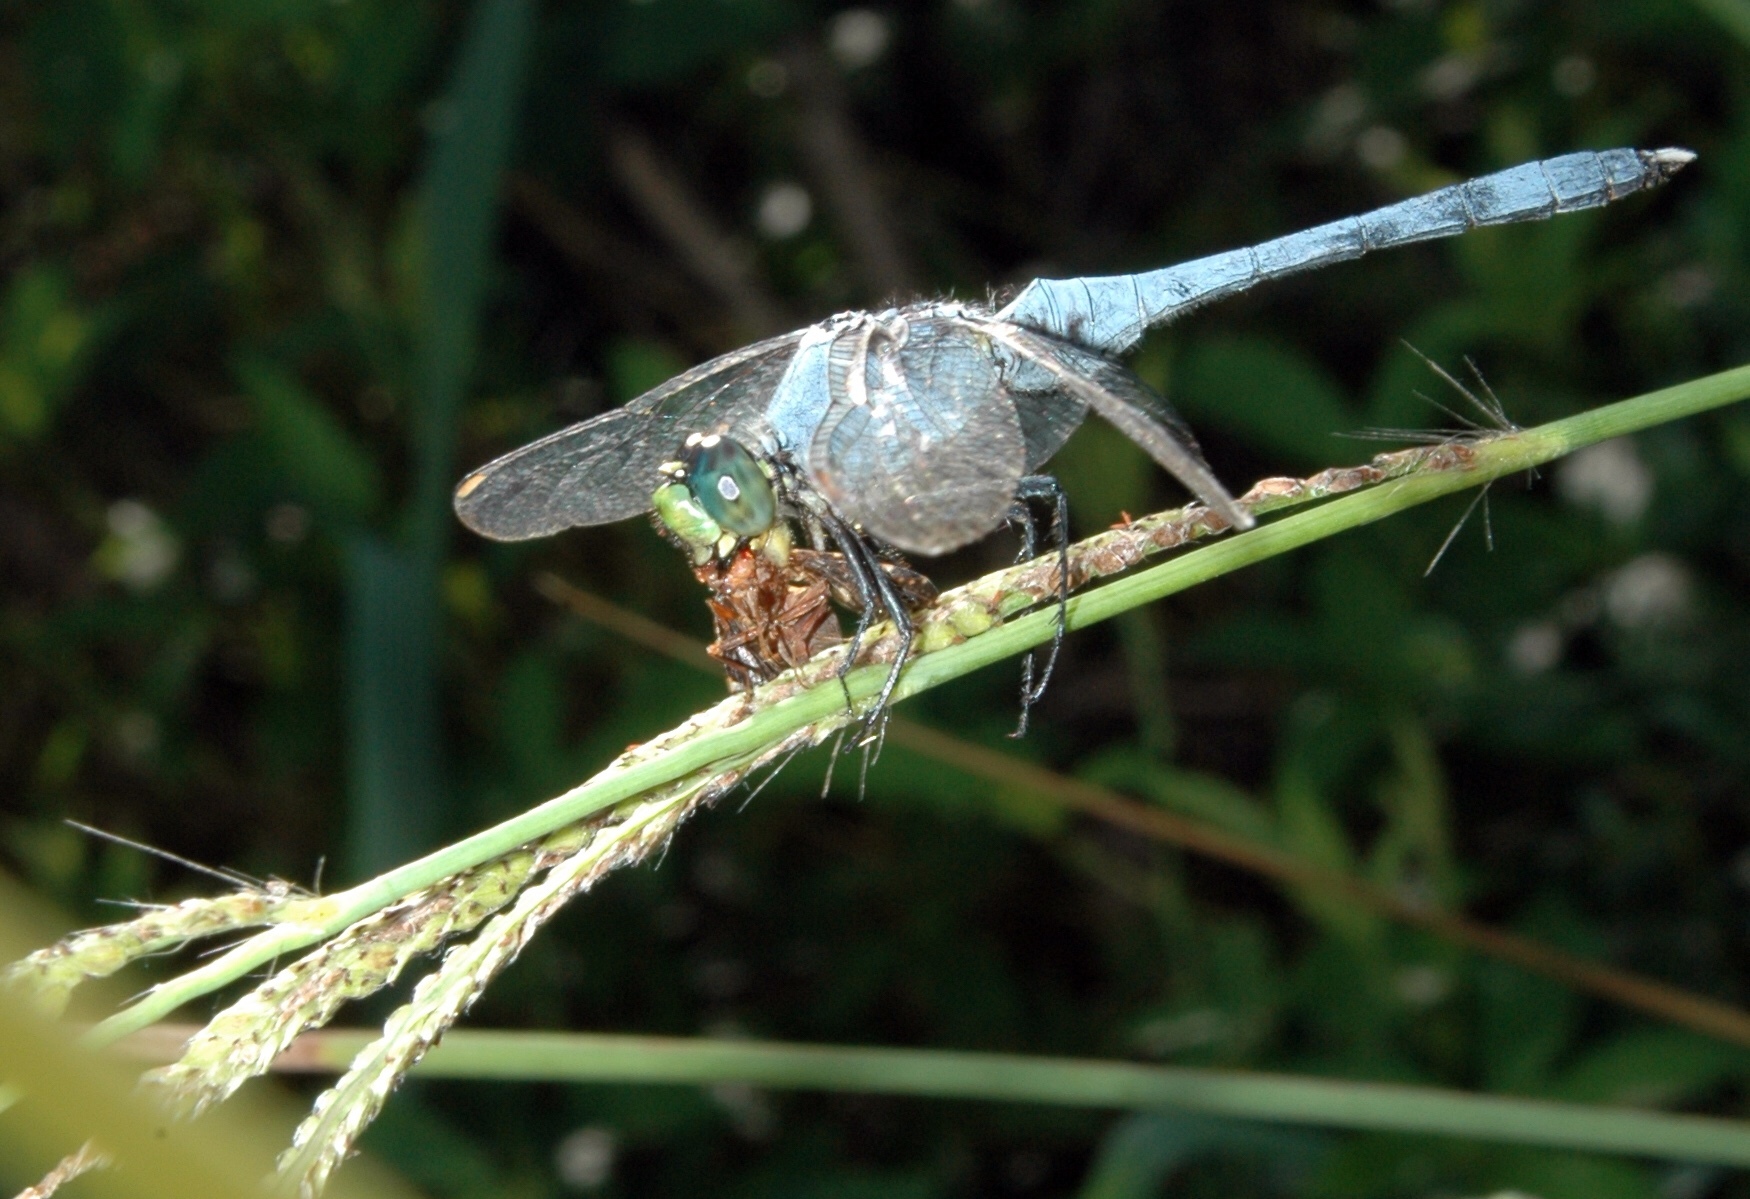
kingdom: Animalia
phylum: Arthropoda
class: Insecta
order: Odonata
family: Libellulidae
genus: Erythemis
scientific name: Erythemis simplicicollis
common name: Eastern pondhawk
